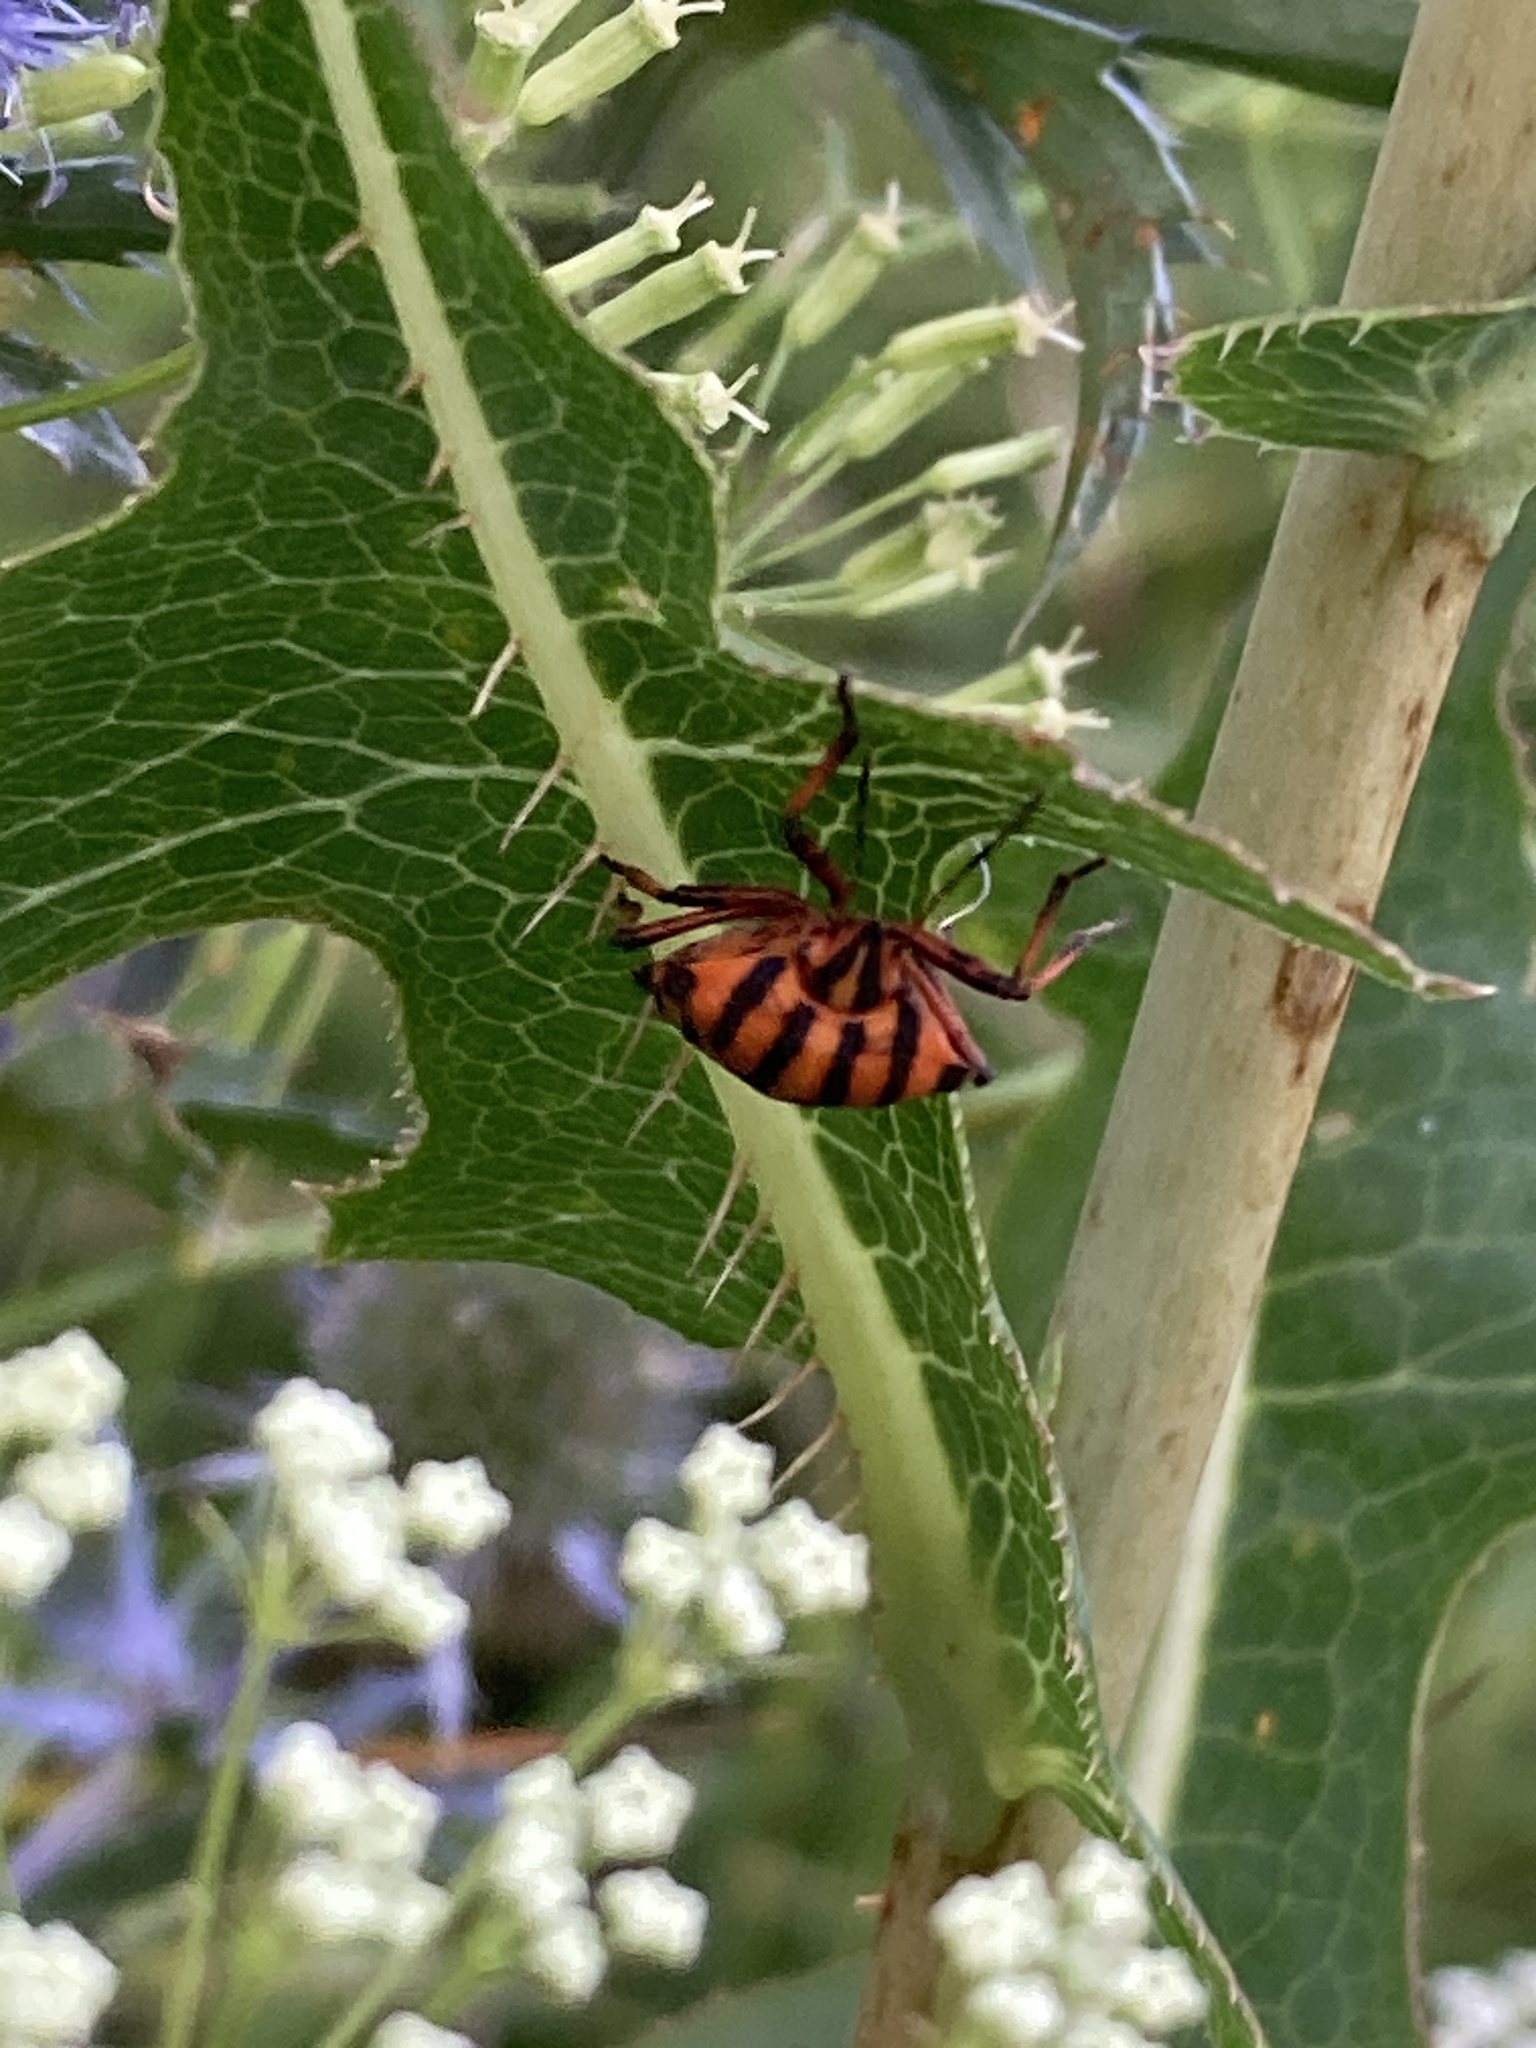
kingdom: Animalia
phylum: Arthropoda
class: Insecta
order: Hemiptera
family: Pentatomidae
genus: Graphosoma
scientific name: Graphosoma italicum
